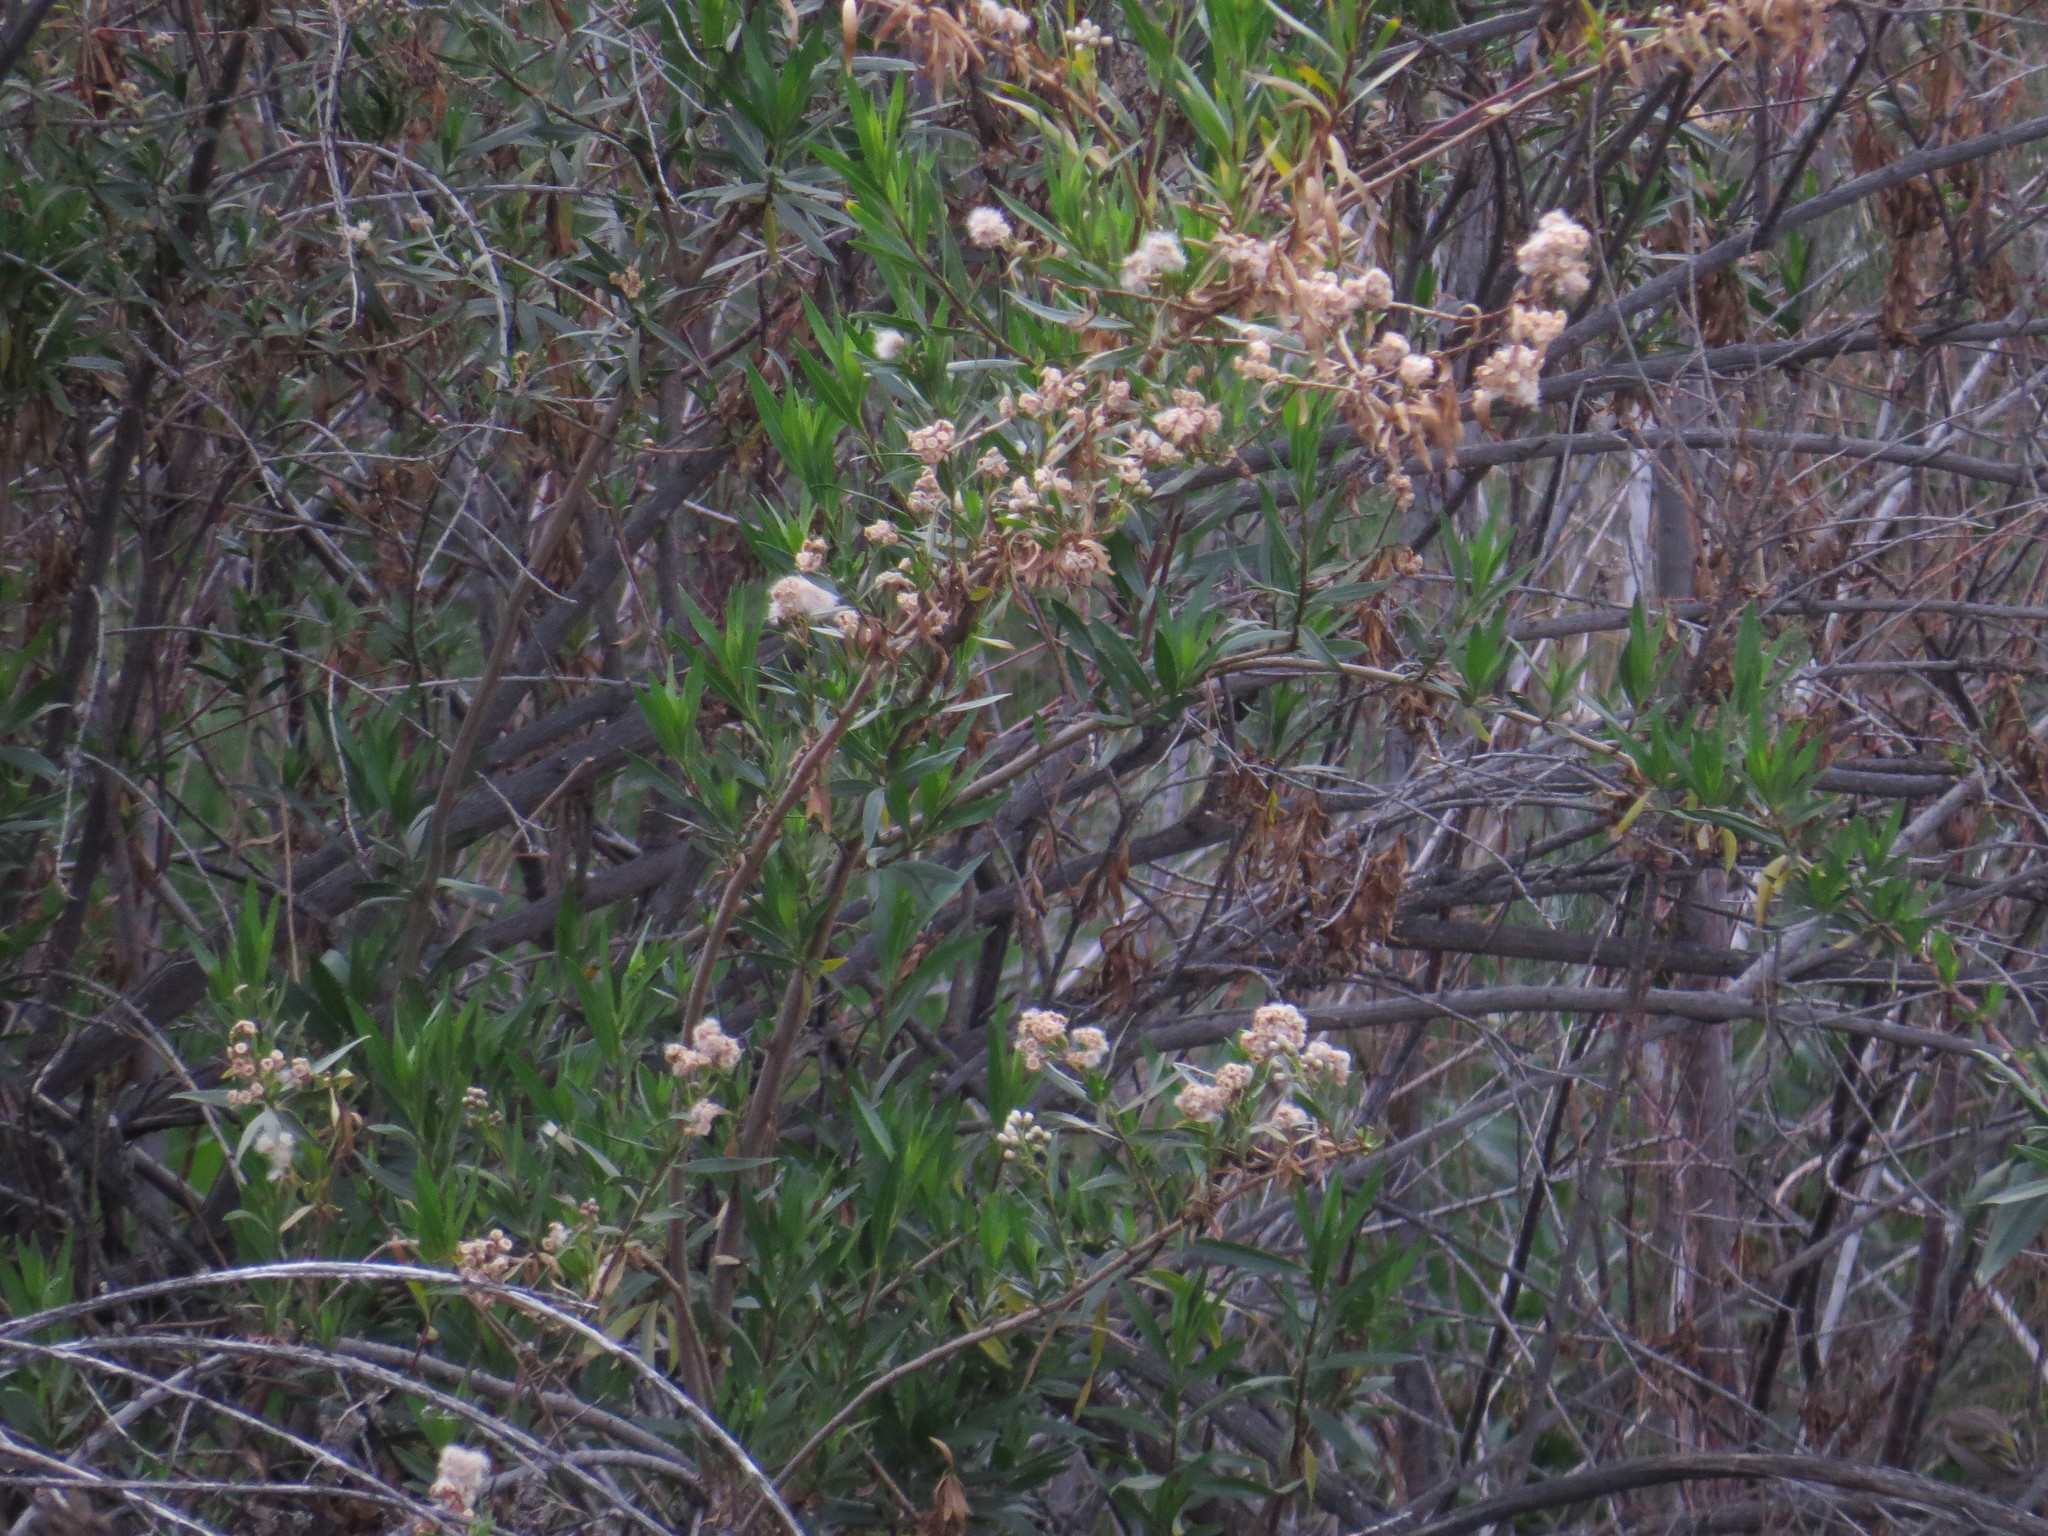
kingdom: Plantae
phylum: Tracheophyta
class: Magnoliopsida
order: Asterales
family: Asteraceae
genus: Baccharis
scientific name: Baccharis salicifolia
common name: Sticky baccharis
